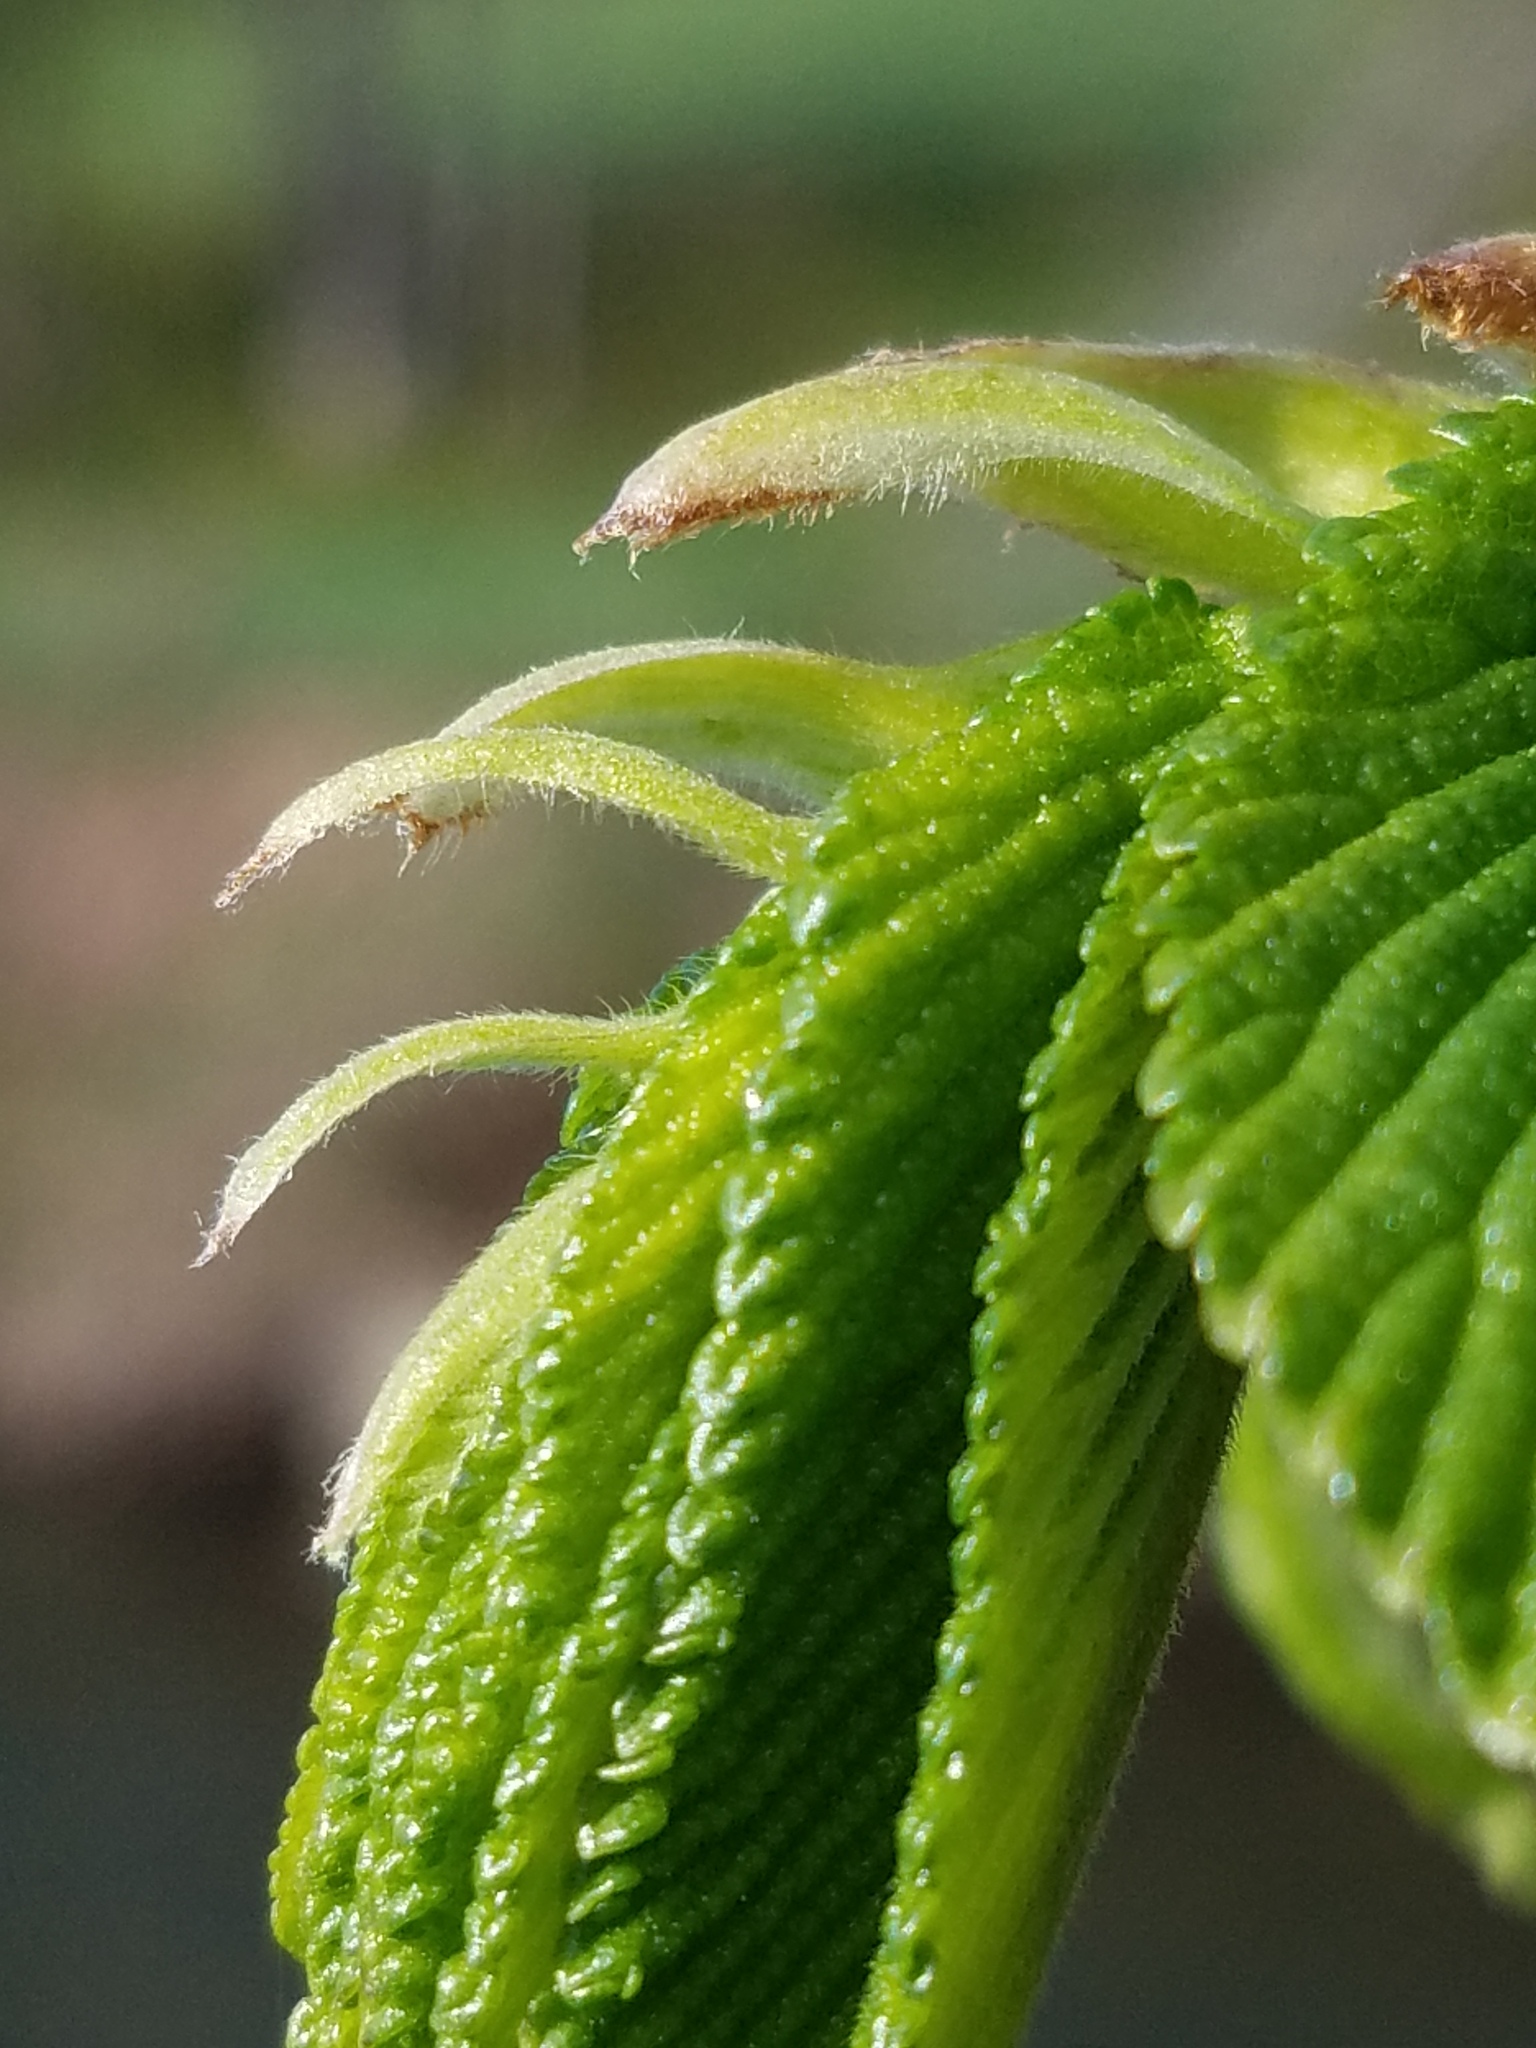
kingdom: Plantae
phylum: Tracheophyta
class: Magnoliopsida
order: Rosales
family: Ulmaceae
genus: Ulmus
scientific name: Ulmus rubra
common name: Slippery elm
